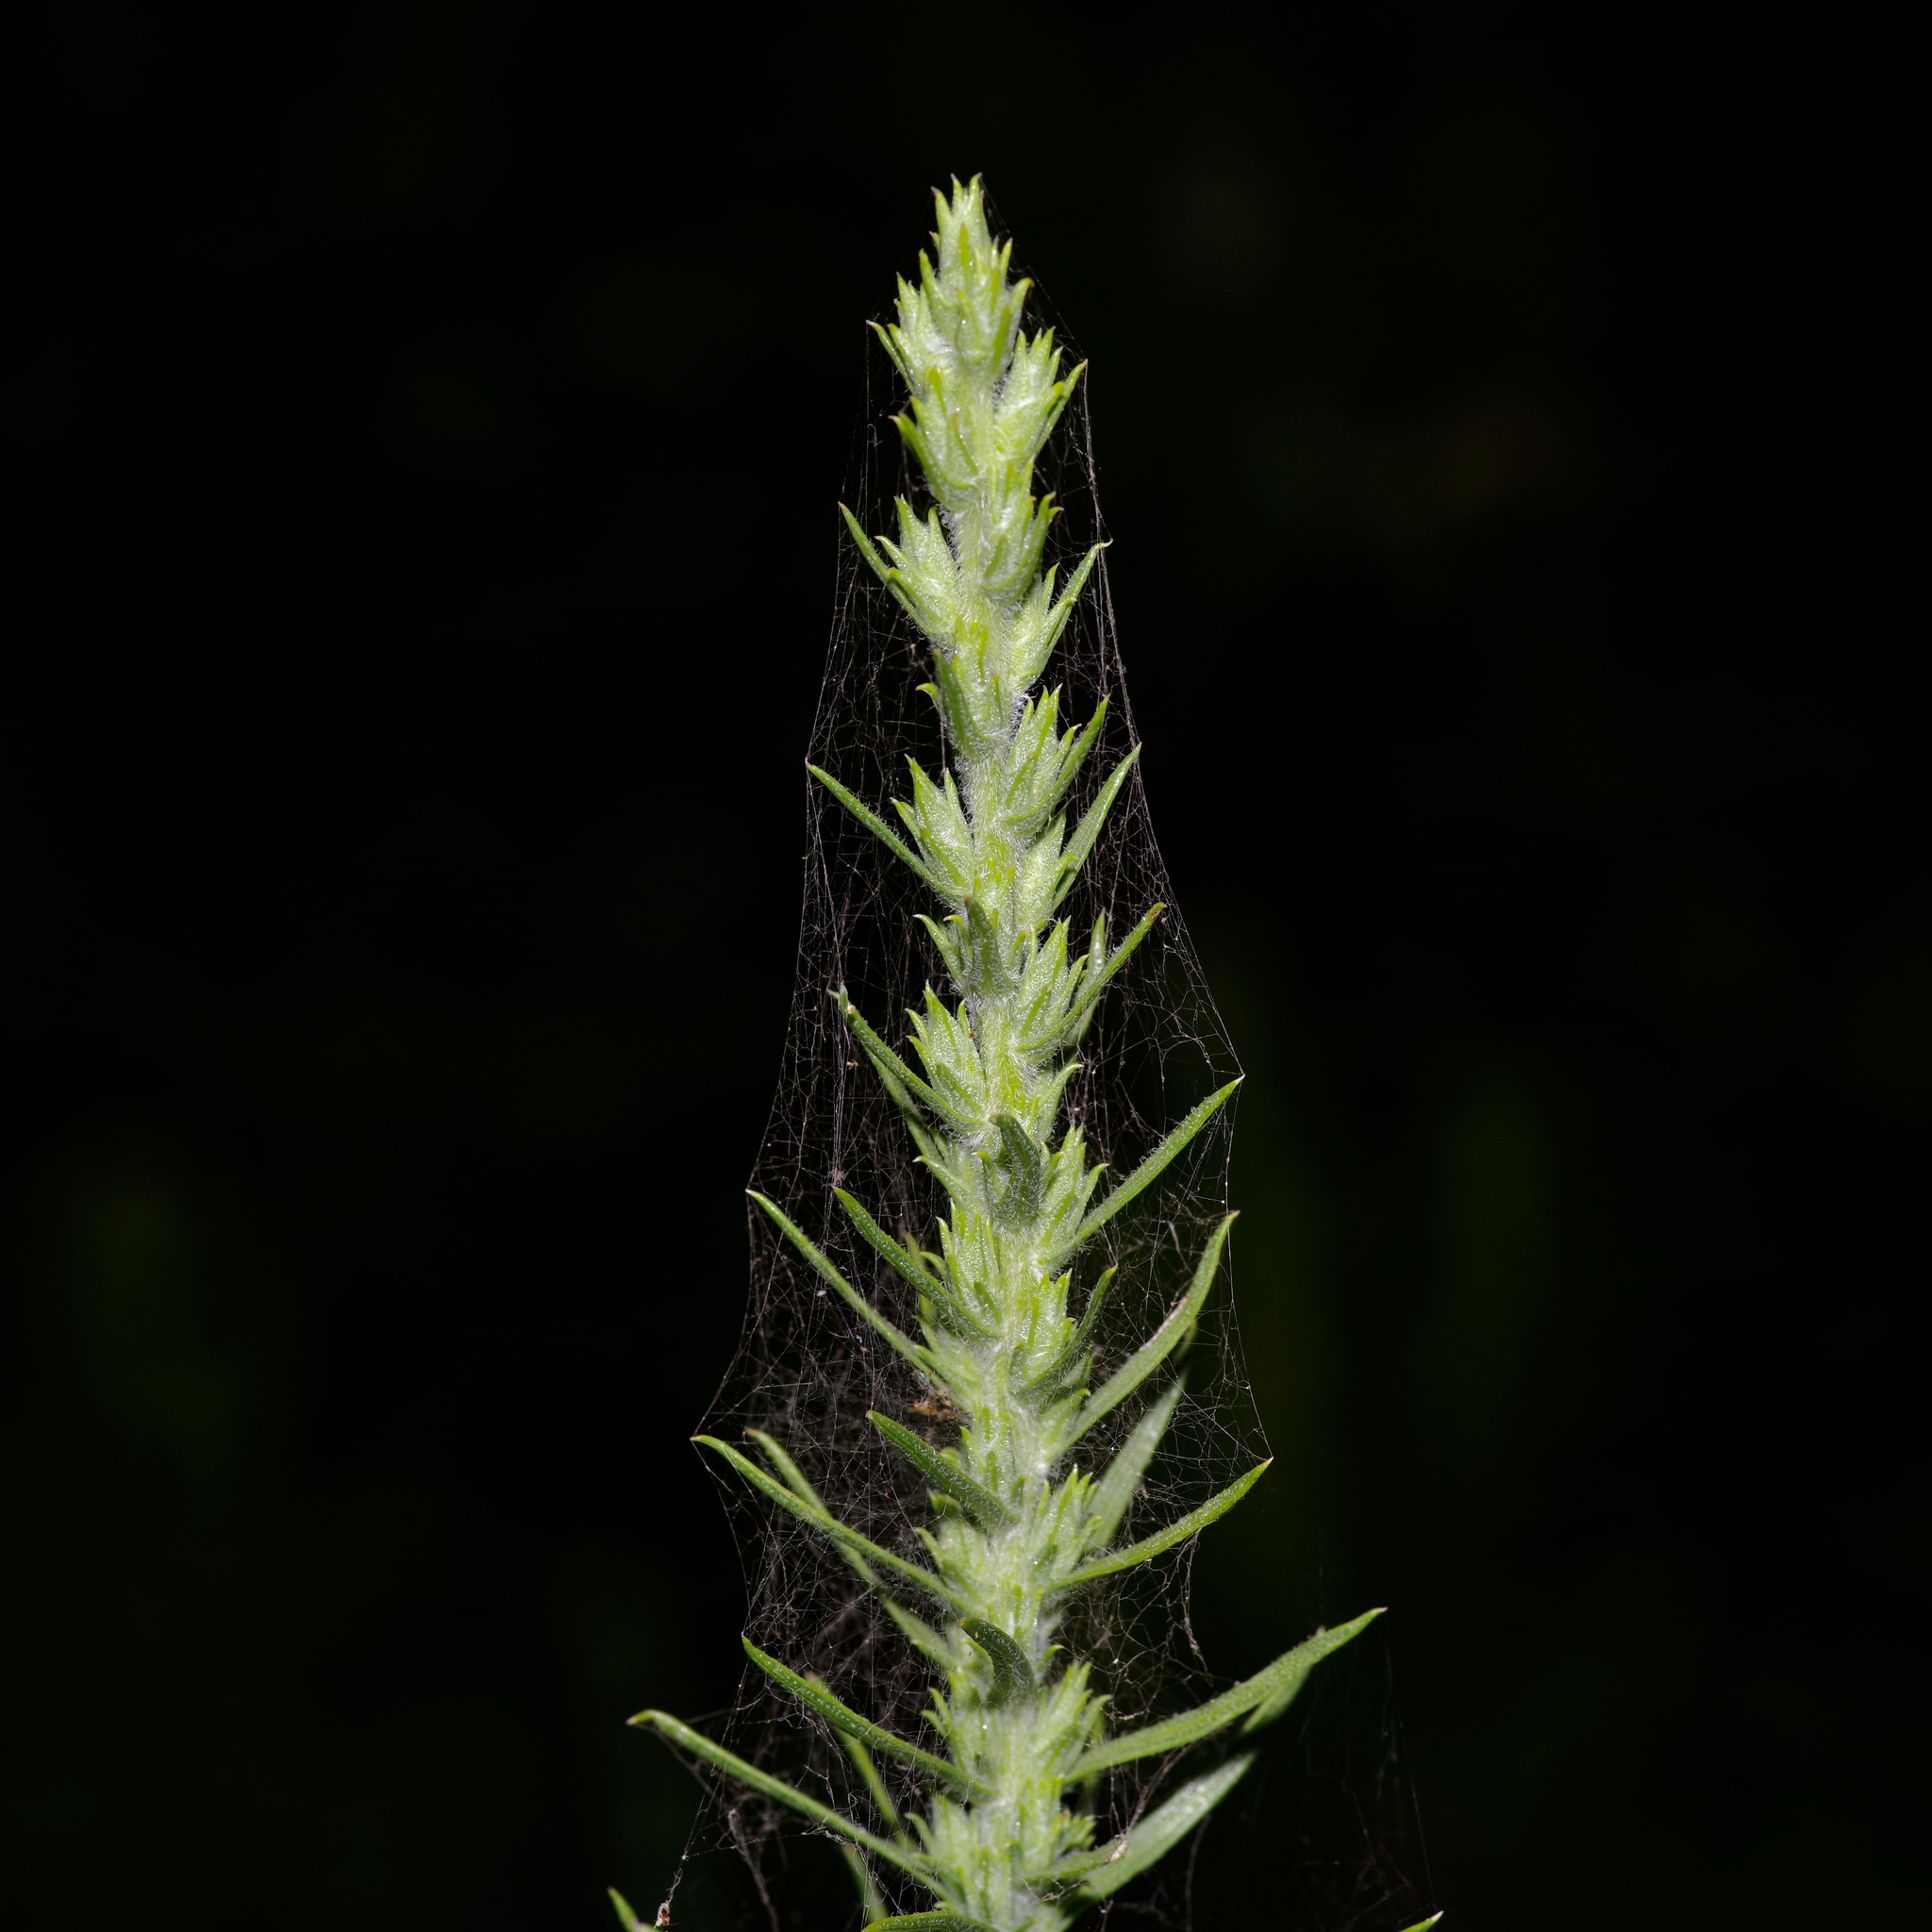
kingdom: Plantae
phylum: Tracheophyta
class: Magnoliopsida
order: Asterales
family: Asteraceae
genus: Liatris
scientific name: Liatris punctata
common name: Dotted gayfeather
